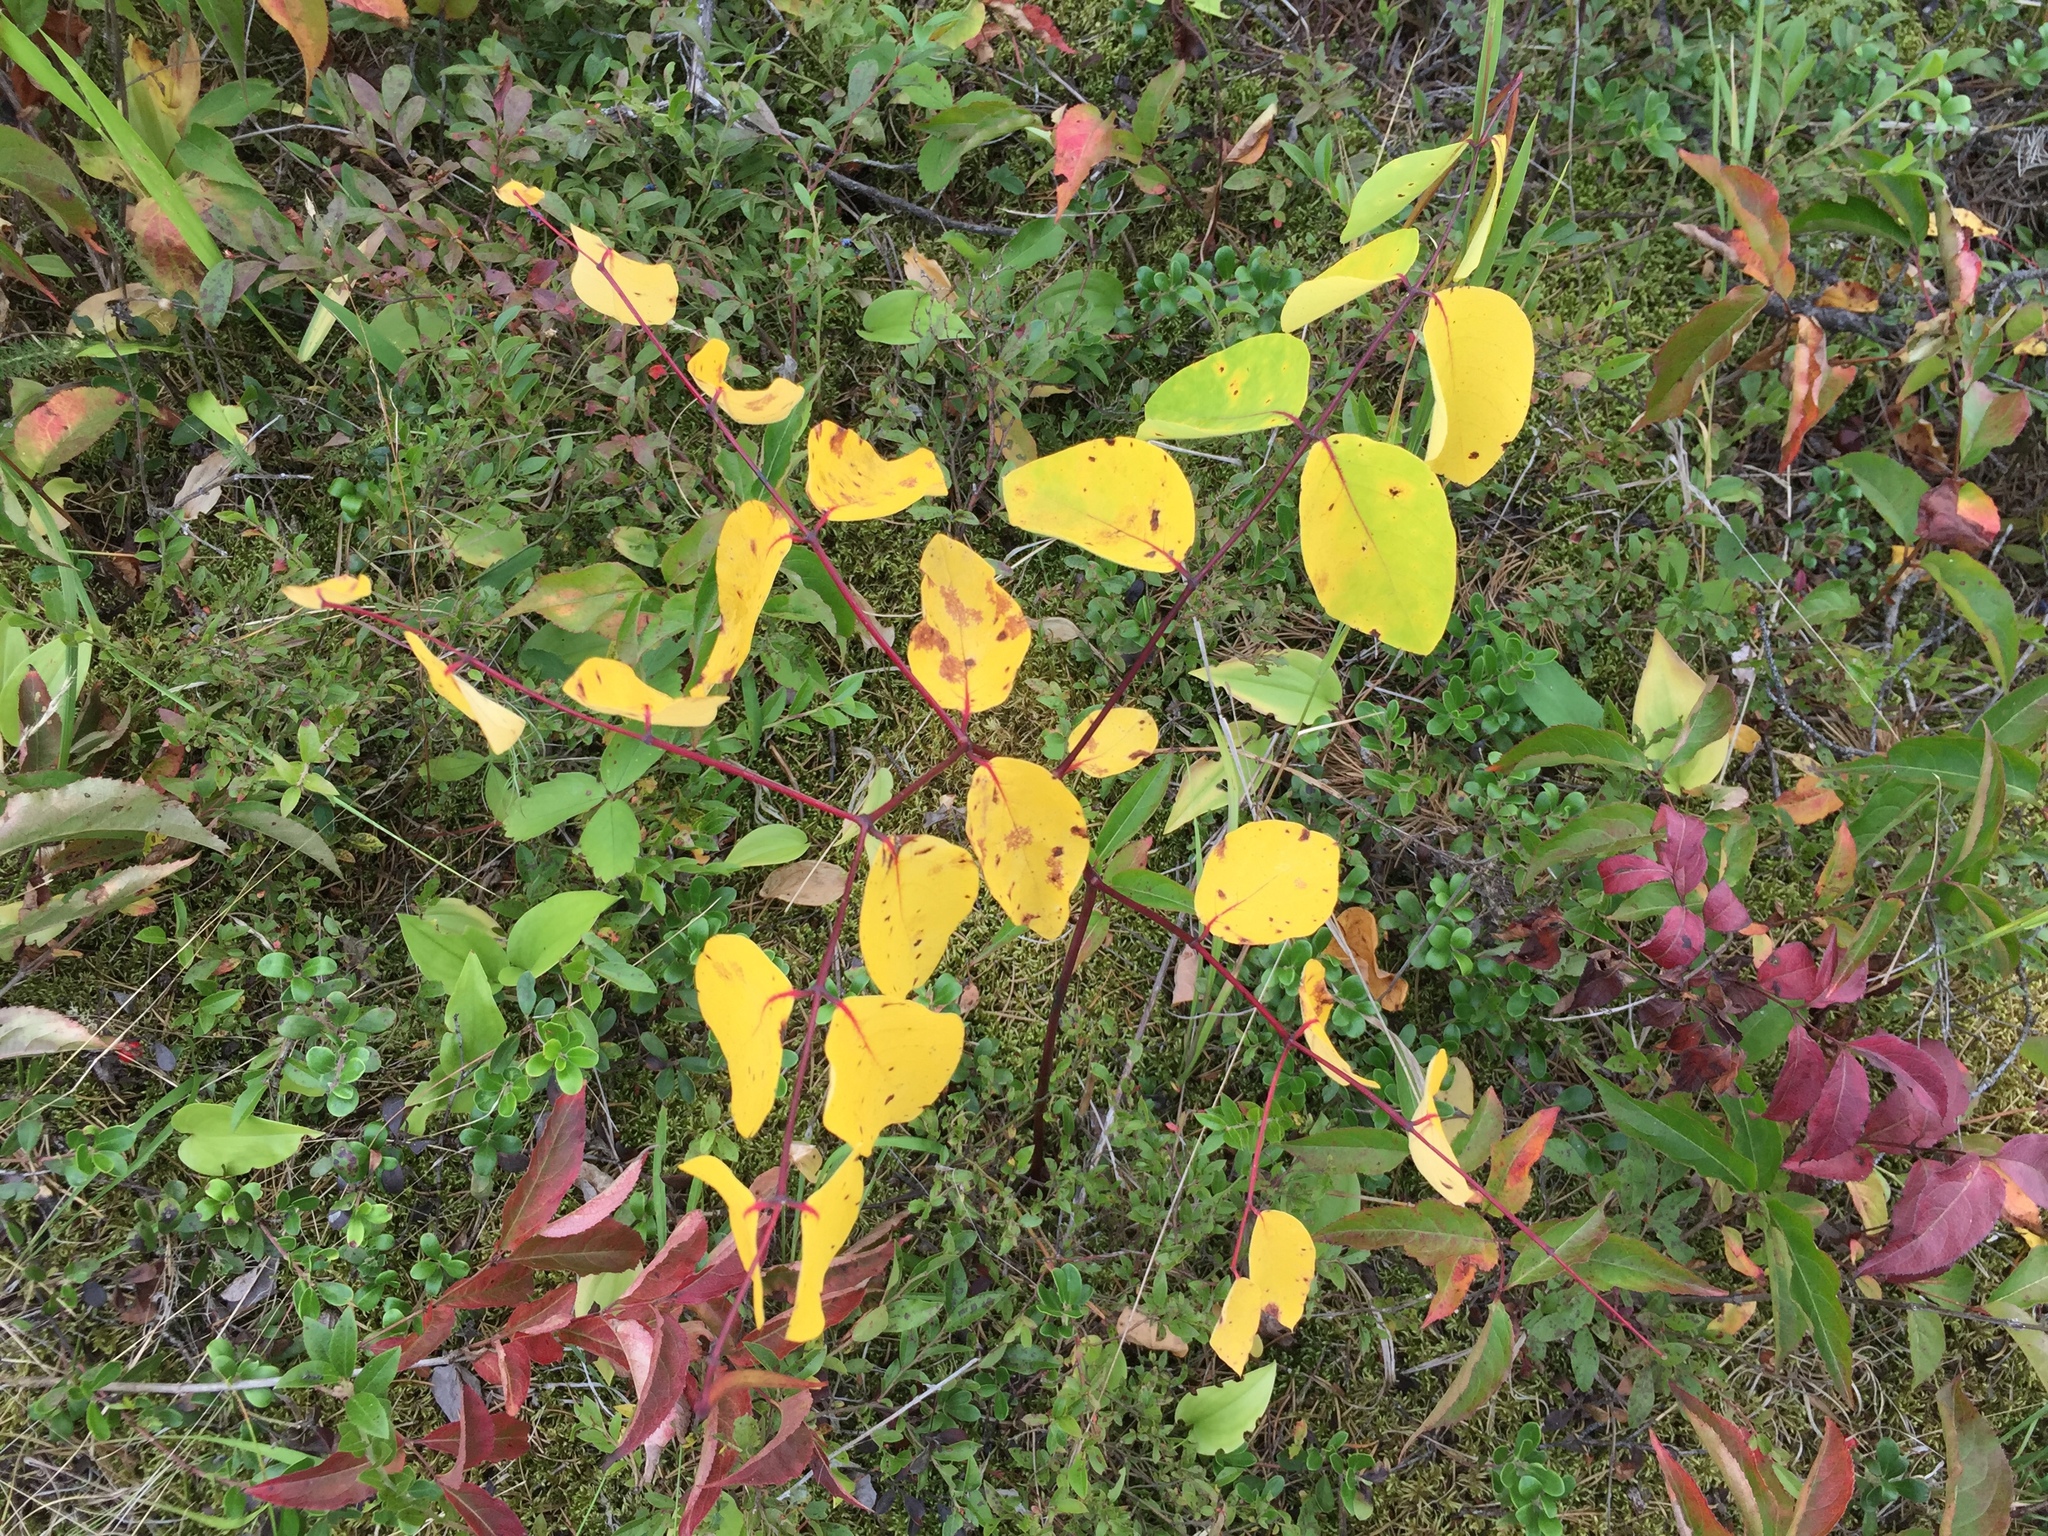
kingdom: Plantae
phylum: Tracheophyta
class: Magnoliopsida
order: Gentianales
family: Apocynaceae
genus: Apocynum
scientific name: Apocynum androsaemifolium
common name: Spreading dogbane
